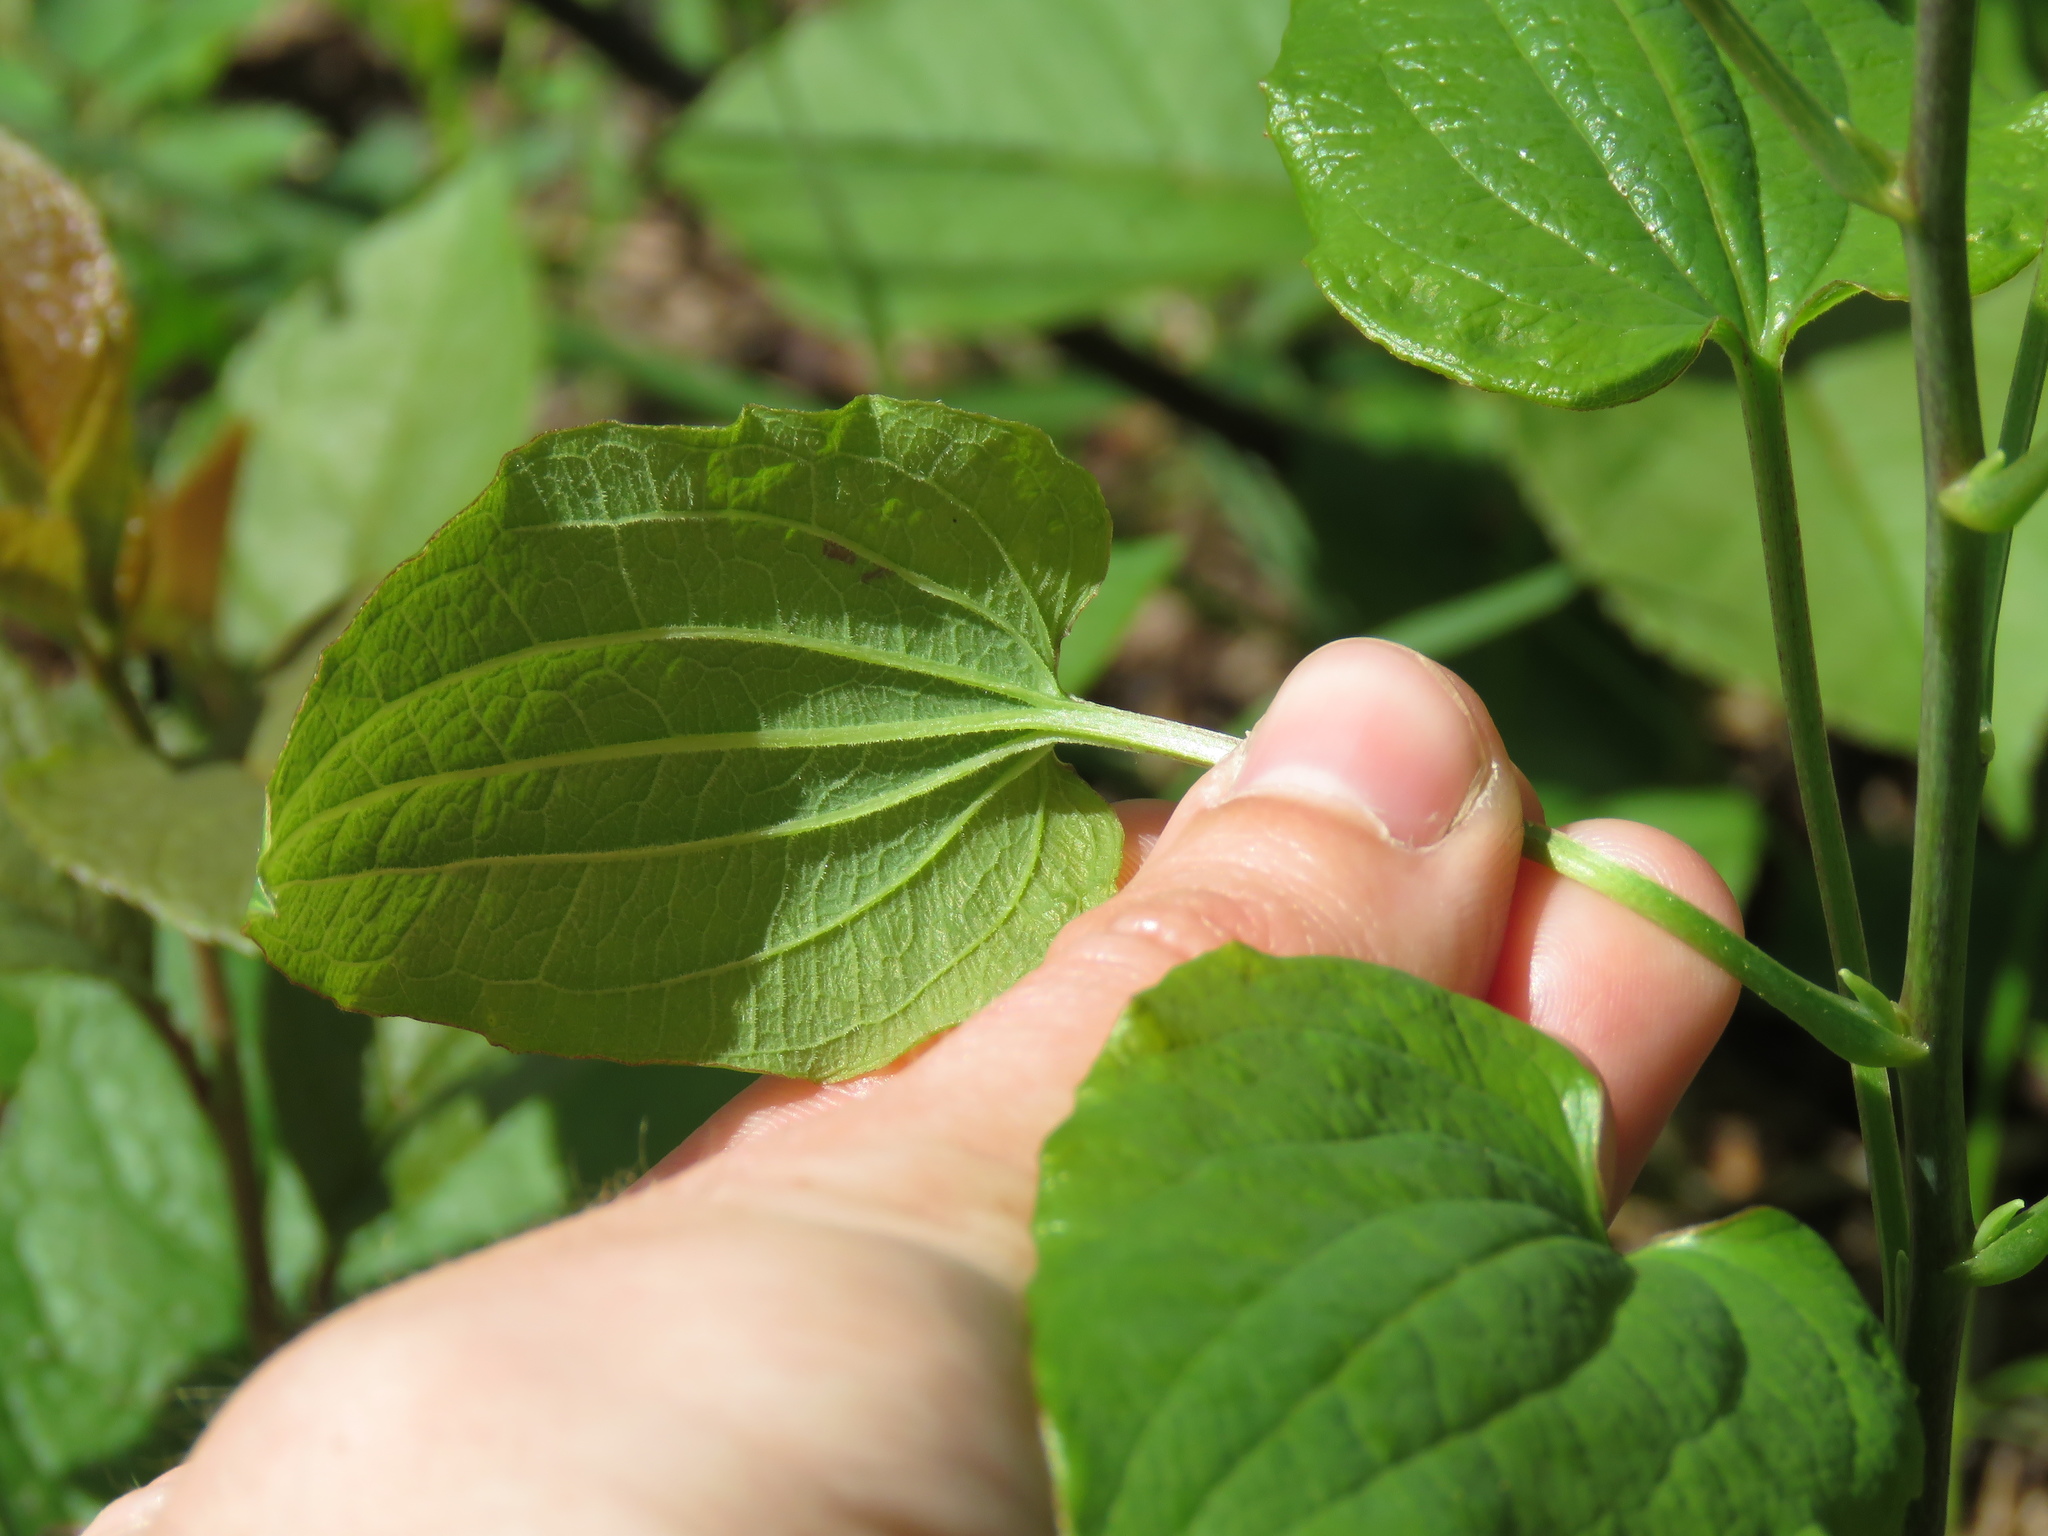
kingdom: Plantae
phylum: Tracheophyta
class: Liliopsida
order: Liliales
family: Smilacaceae
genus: Smilax
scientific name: Smilax lasioneura
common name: Blue ridge carrionflower
